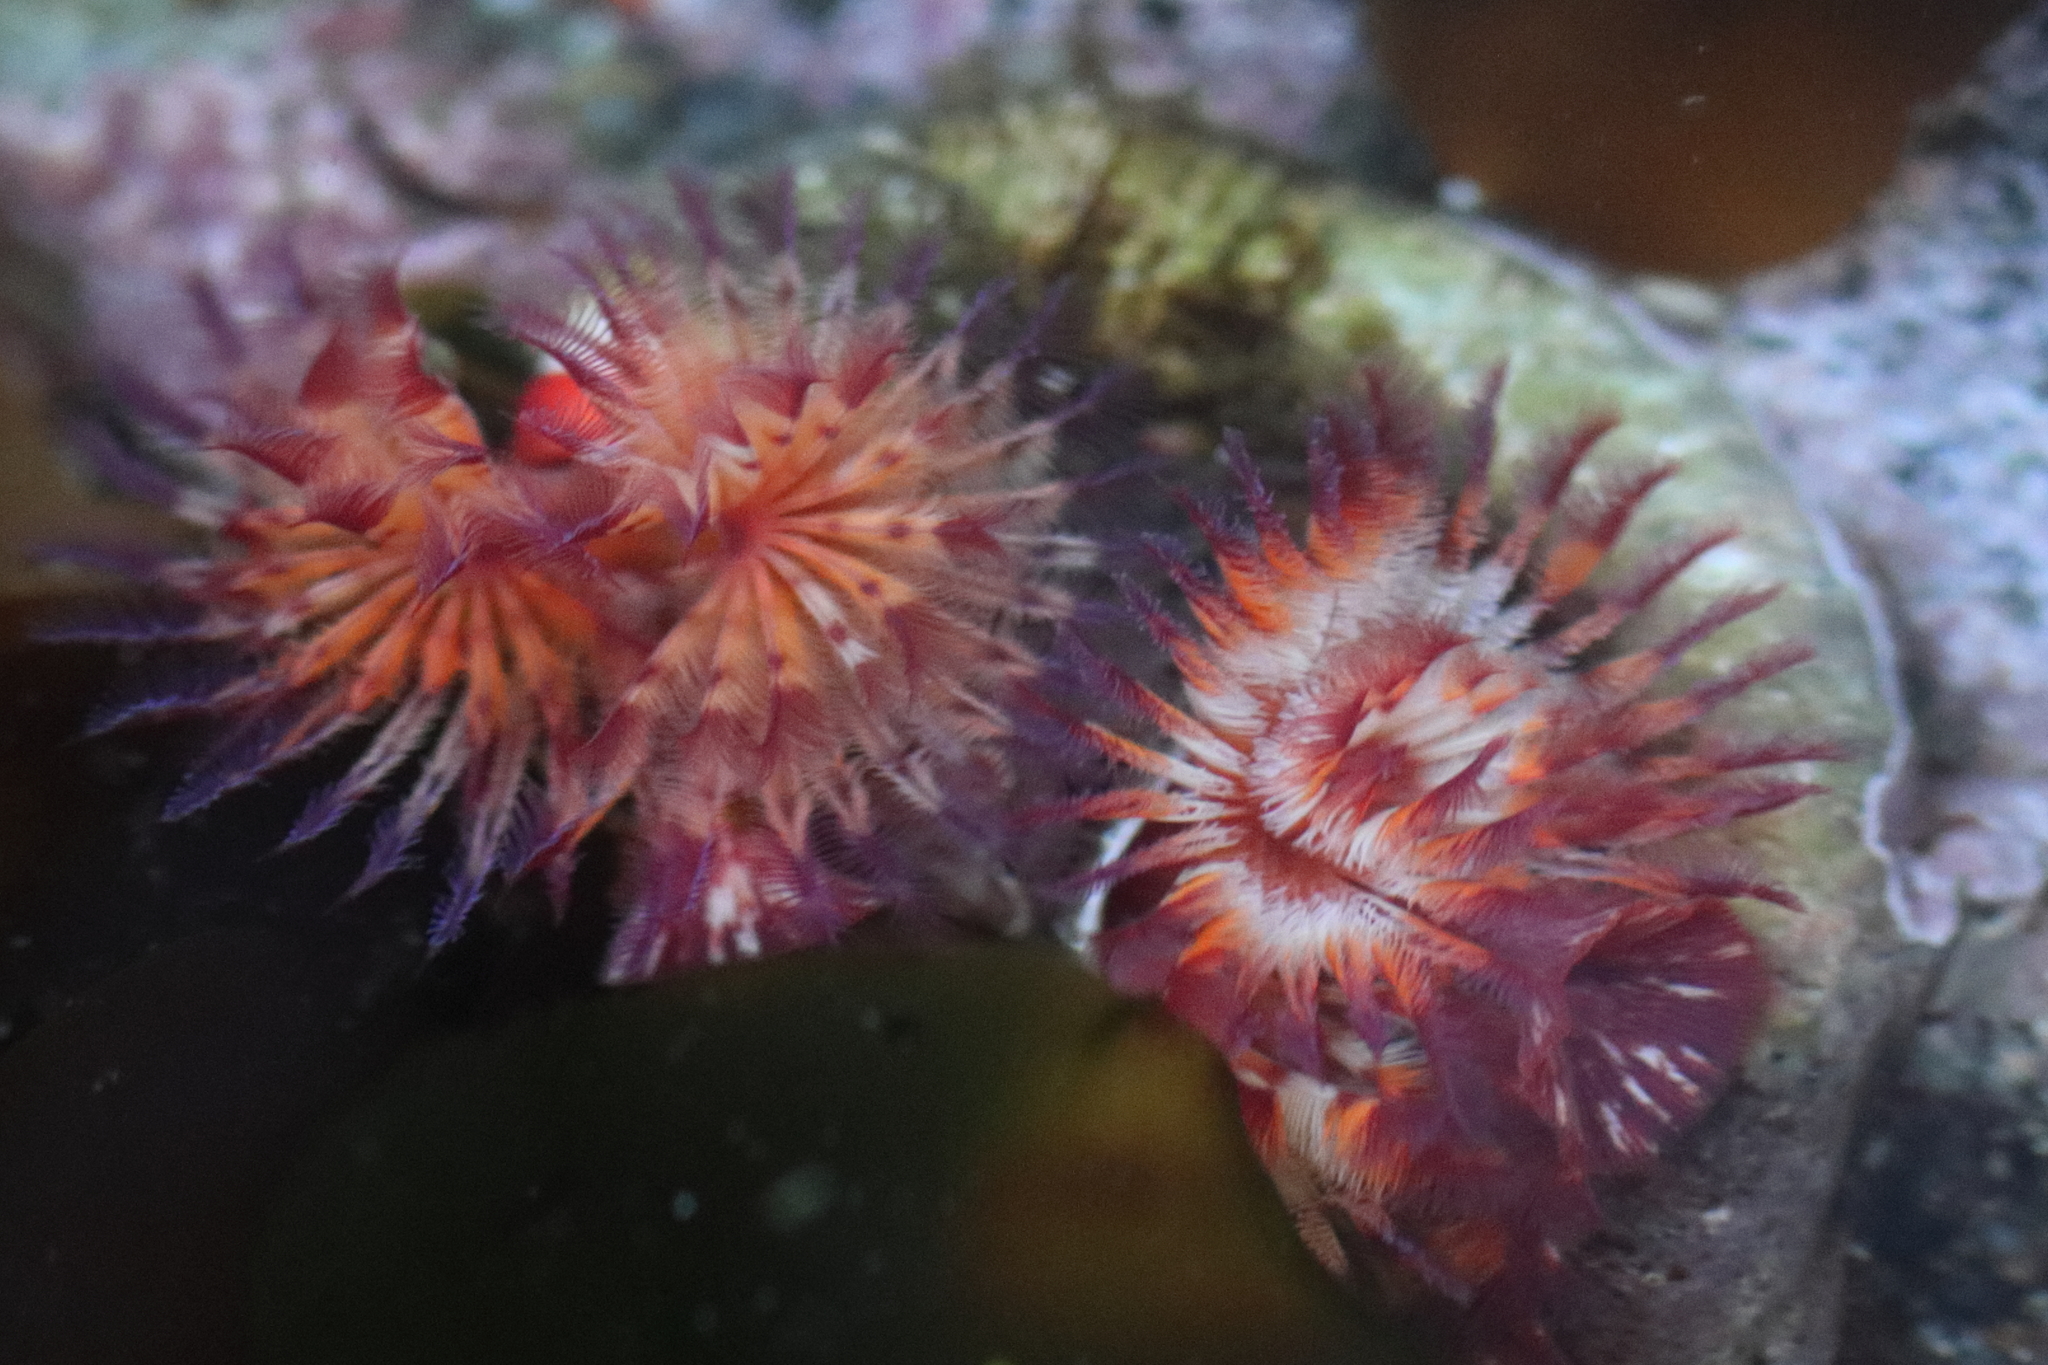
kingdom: Animalia
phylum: Annelida
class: Polychaeta
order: Sabellida
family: Serpulidae
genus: Serpula
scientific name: Serpula columbiana
